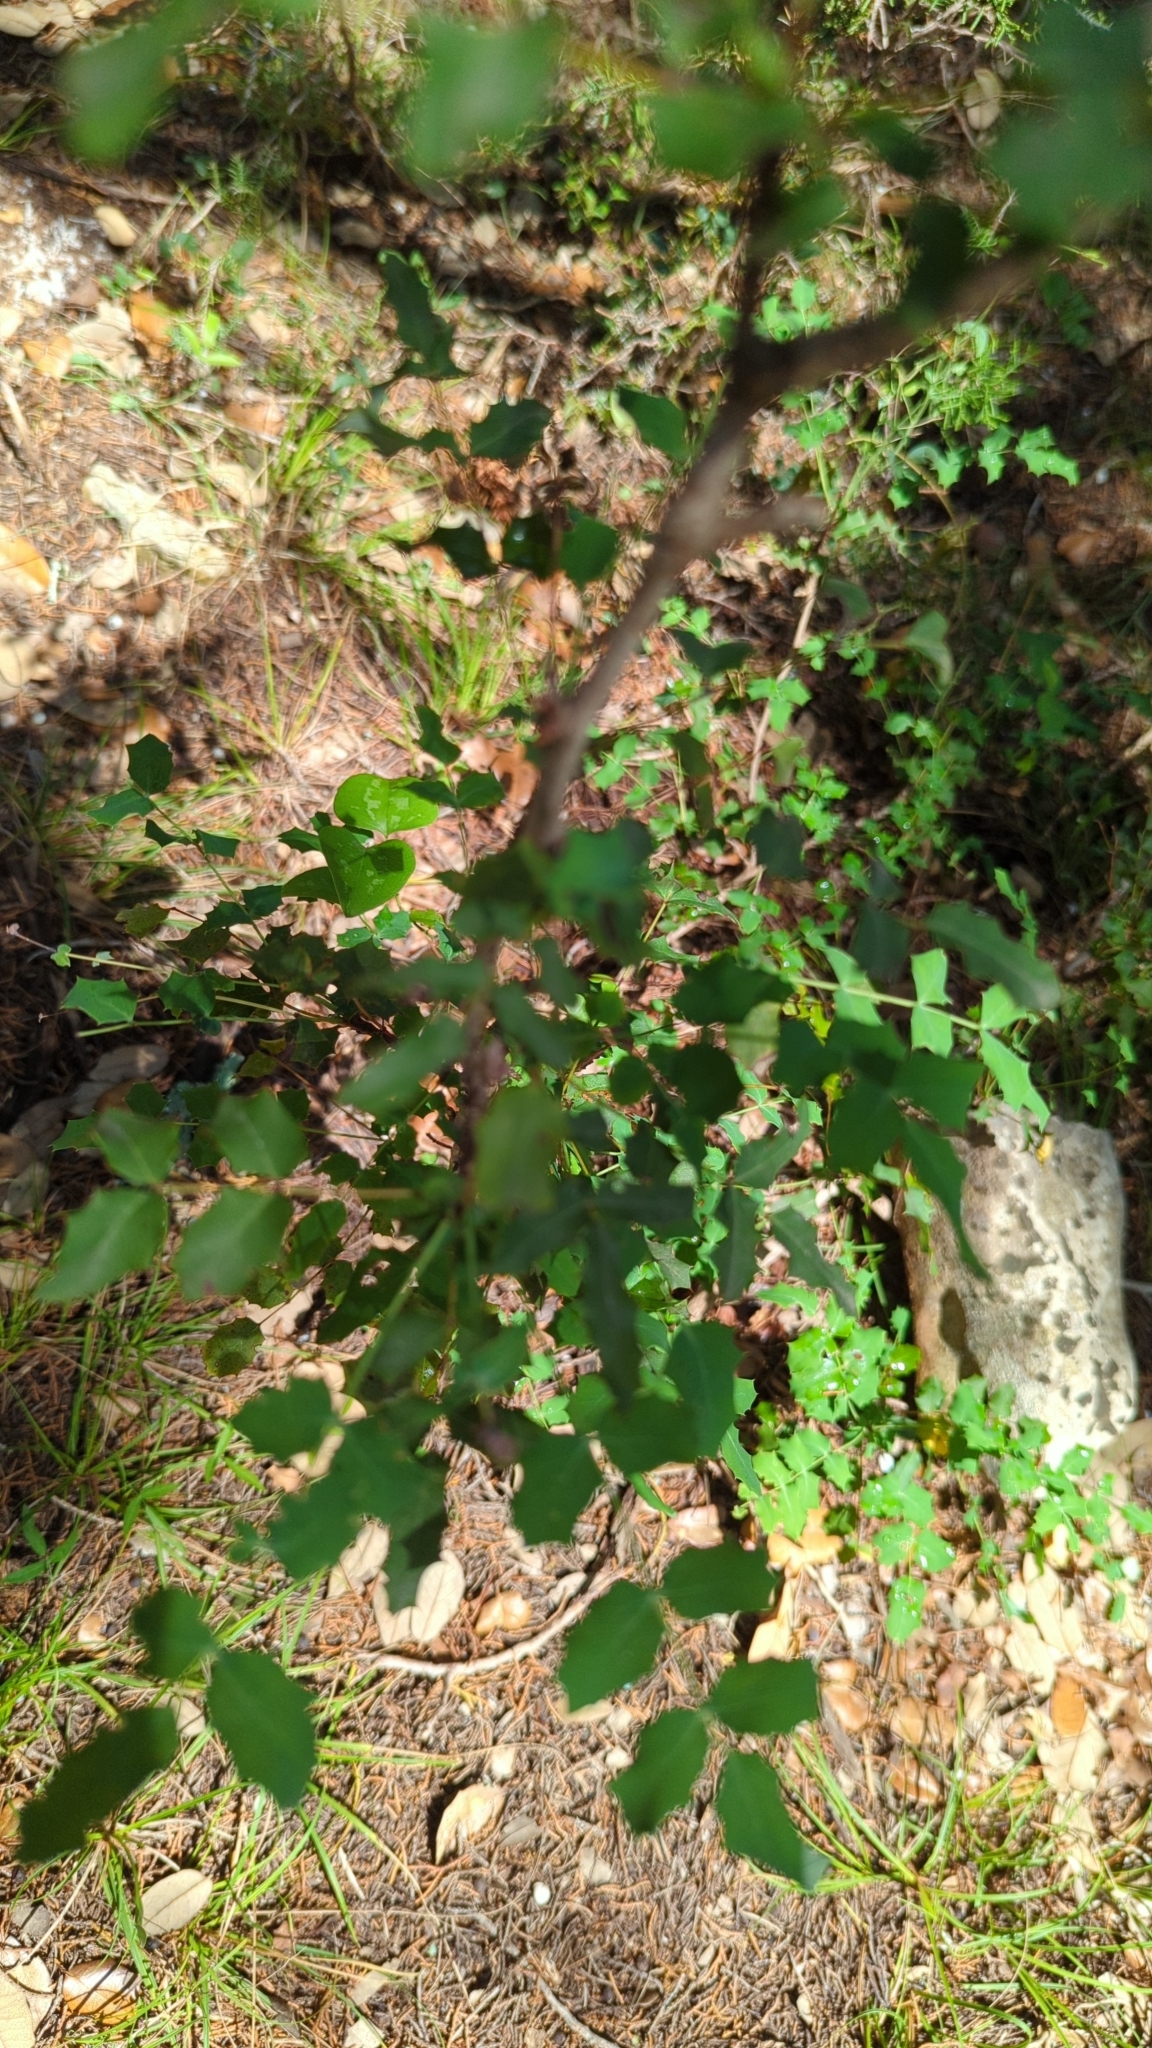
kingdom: Plantae
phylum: Tracheophyta
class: Magnoliopsida
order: Ranunculales
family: Berberidaceae
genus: Berberis
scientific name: Berberis swaseyi
